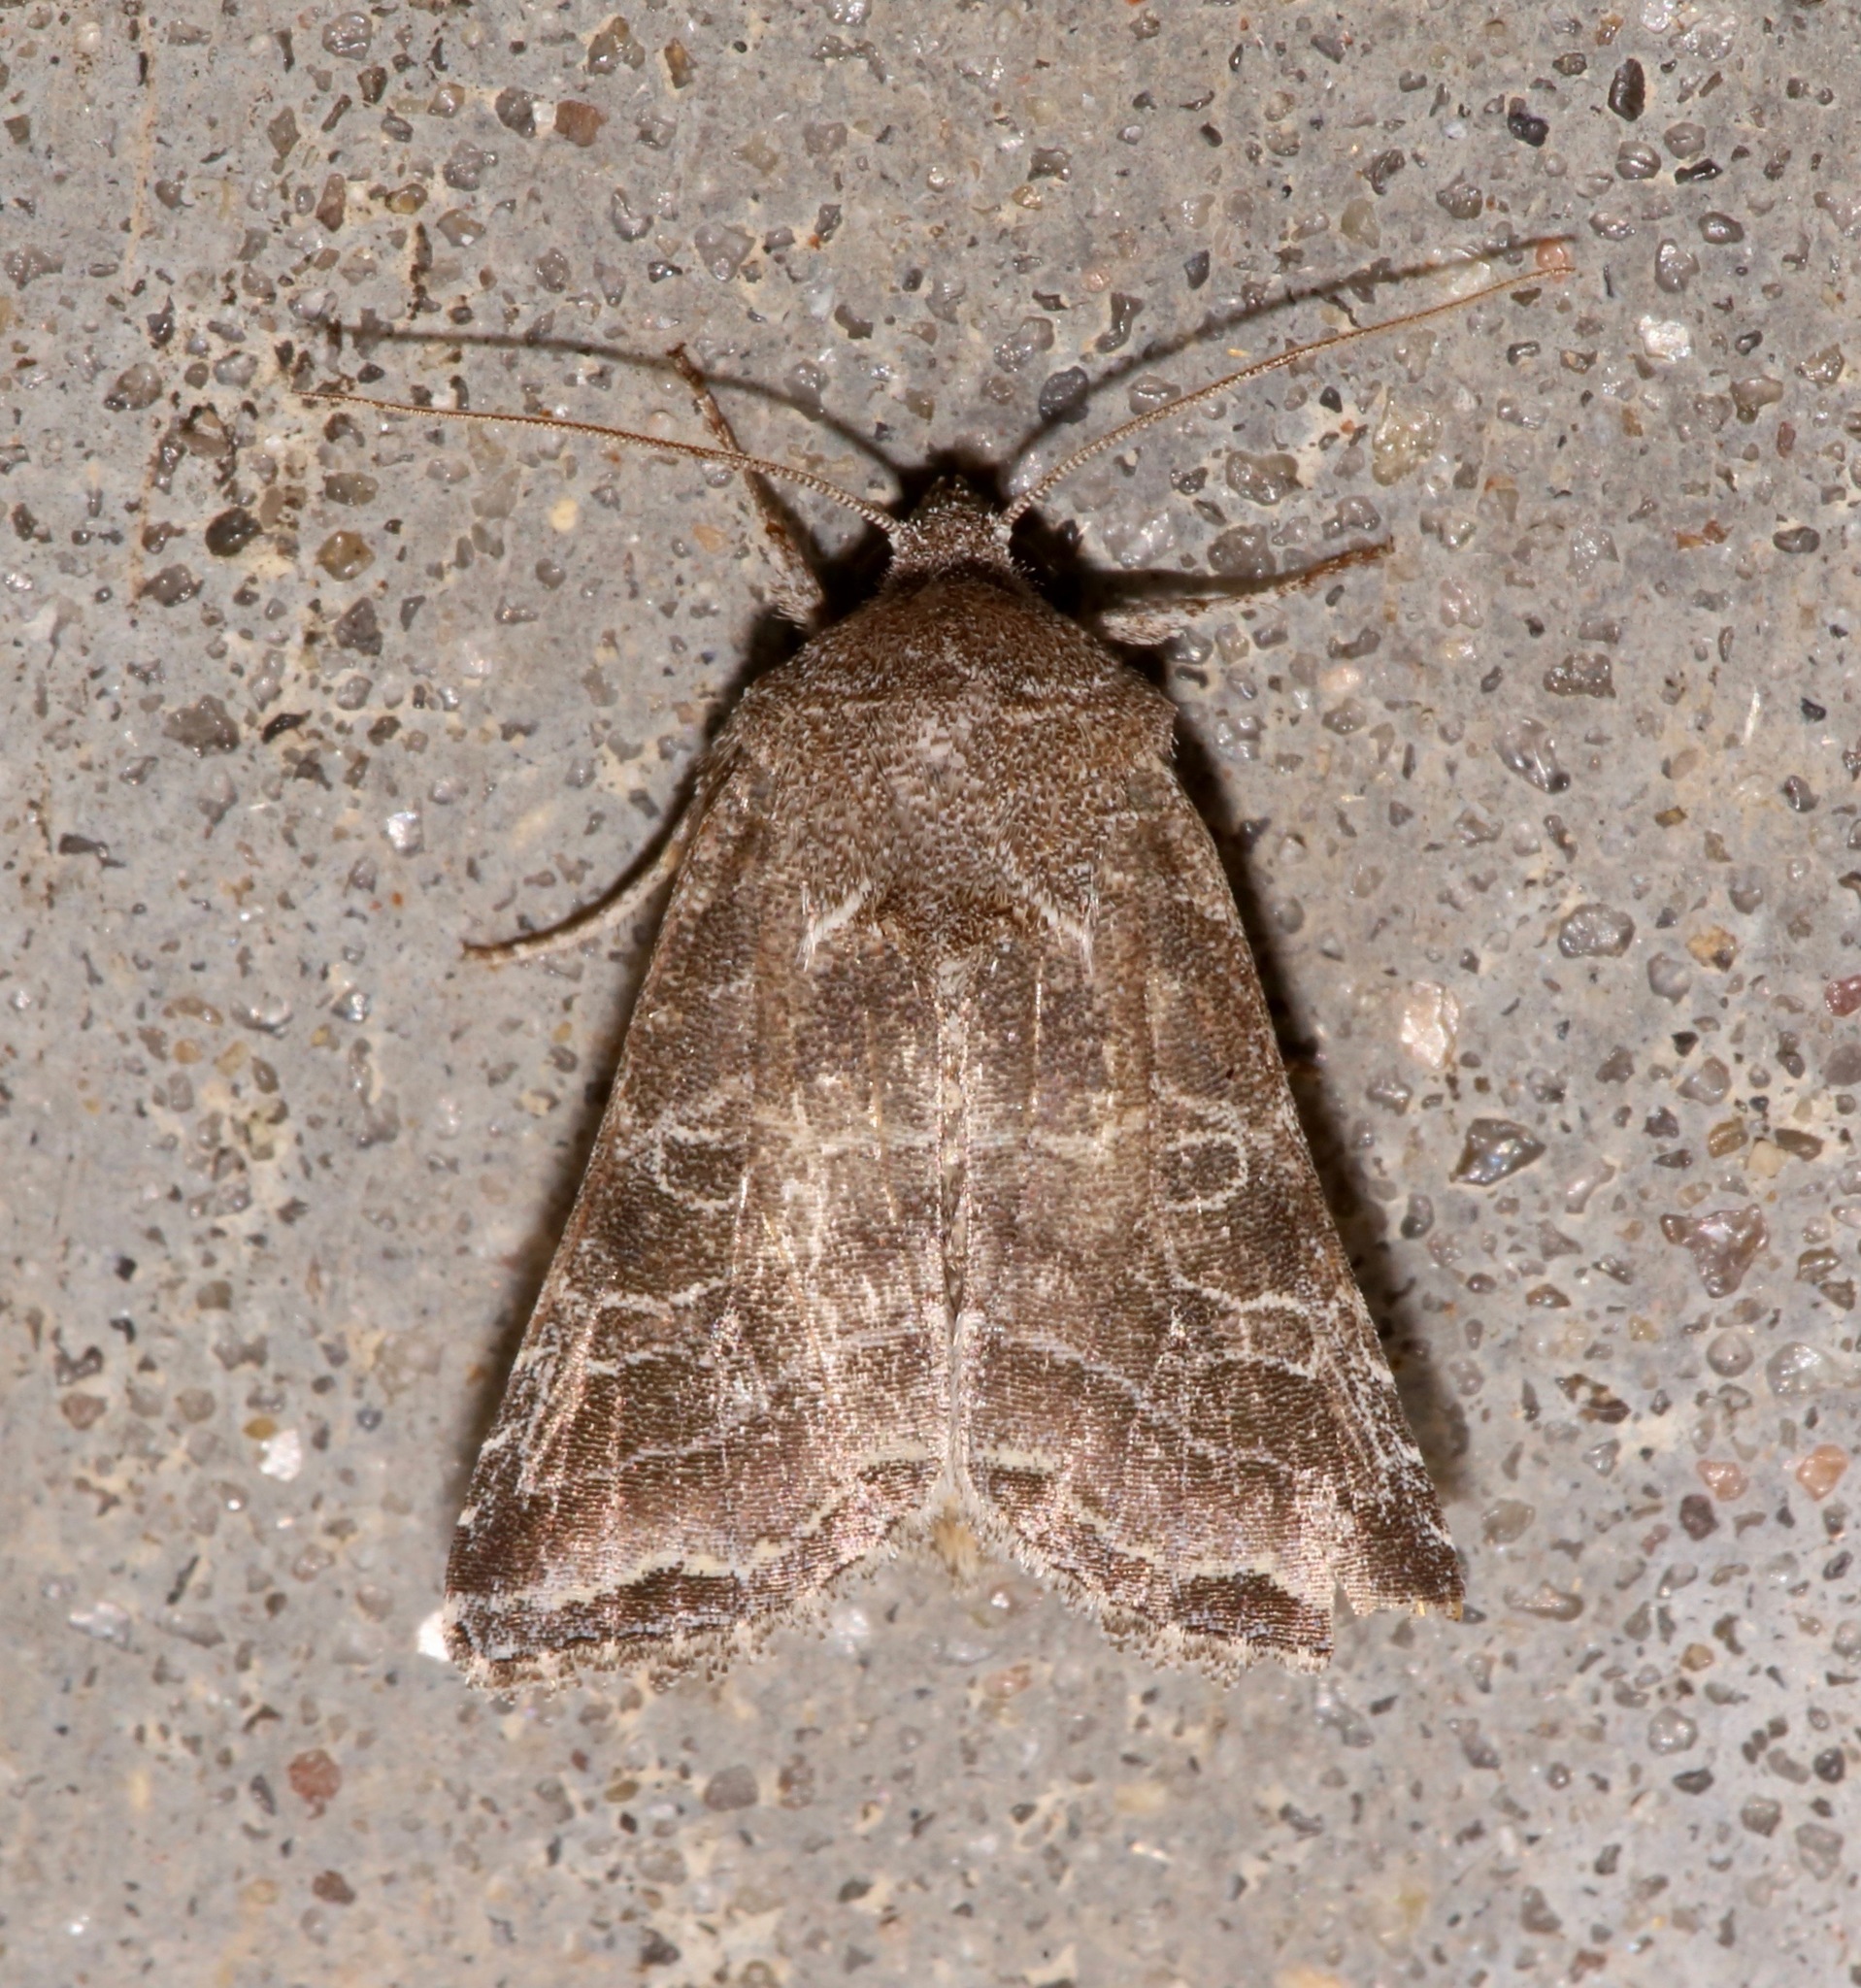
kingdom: Animalia
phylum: Arthropoda
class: Insecta
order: Lepidoptera
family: Noctuidae
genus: Lacinipolia
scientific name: Lacinipolia erecta
